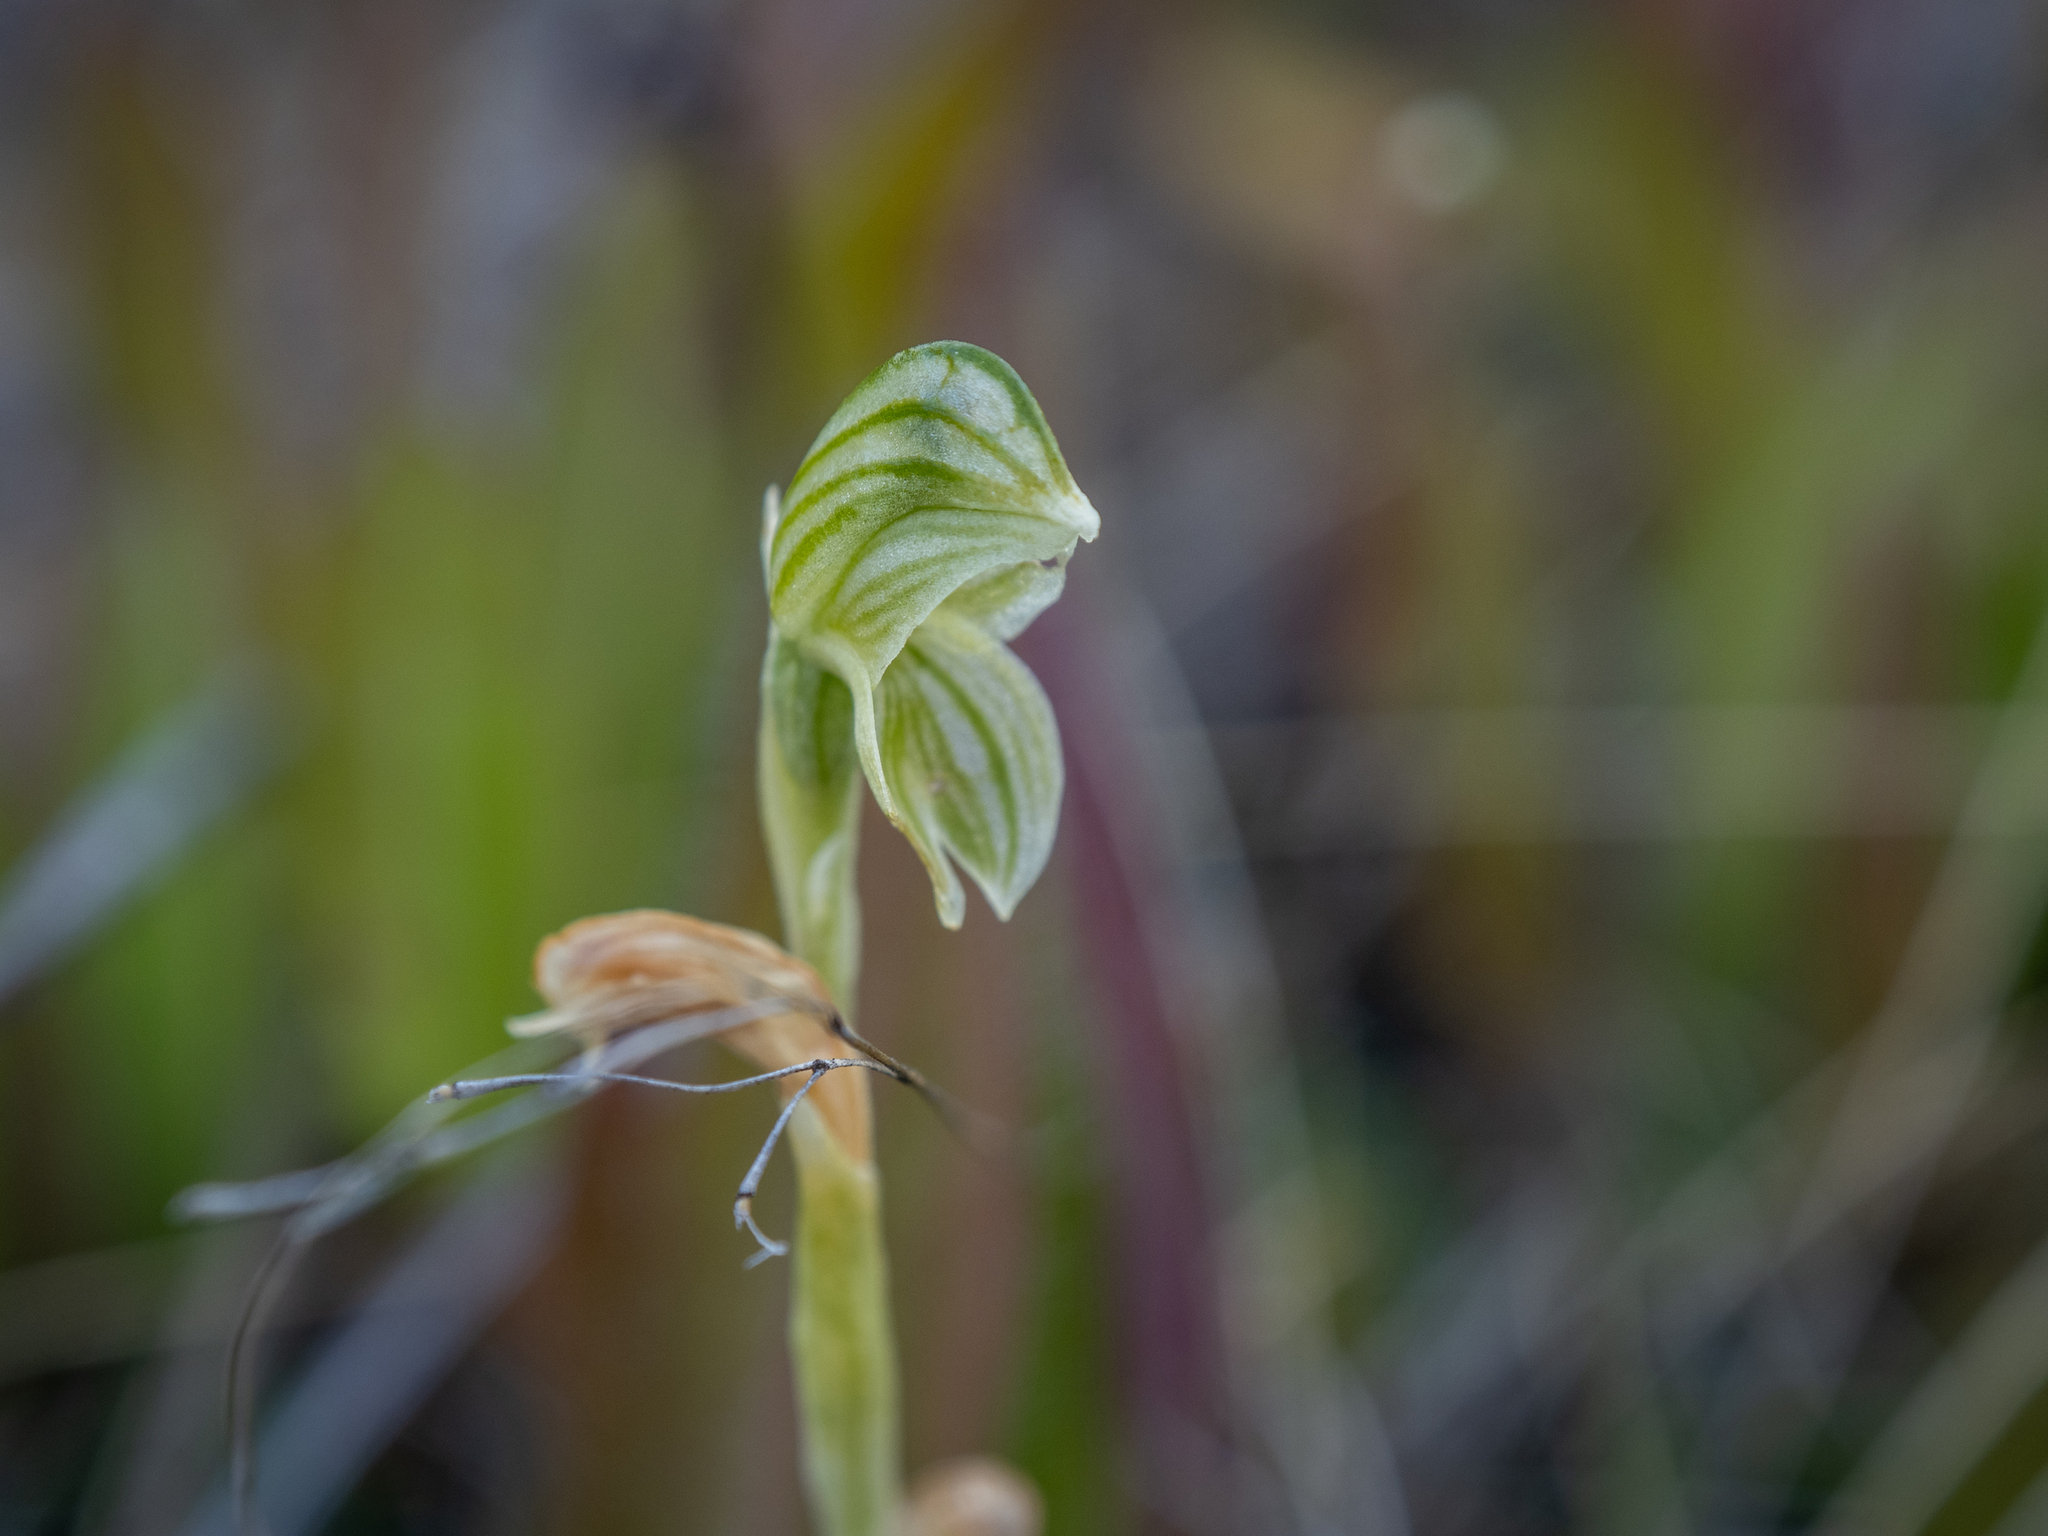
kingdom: Plantae
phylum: Tracheophyta
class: Liliopsida
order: Asparagales
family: Orchidaceae
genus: Pterostylis
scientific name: Pterostylis tanypoda
